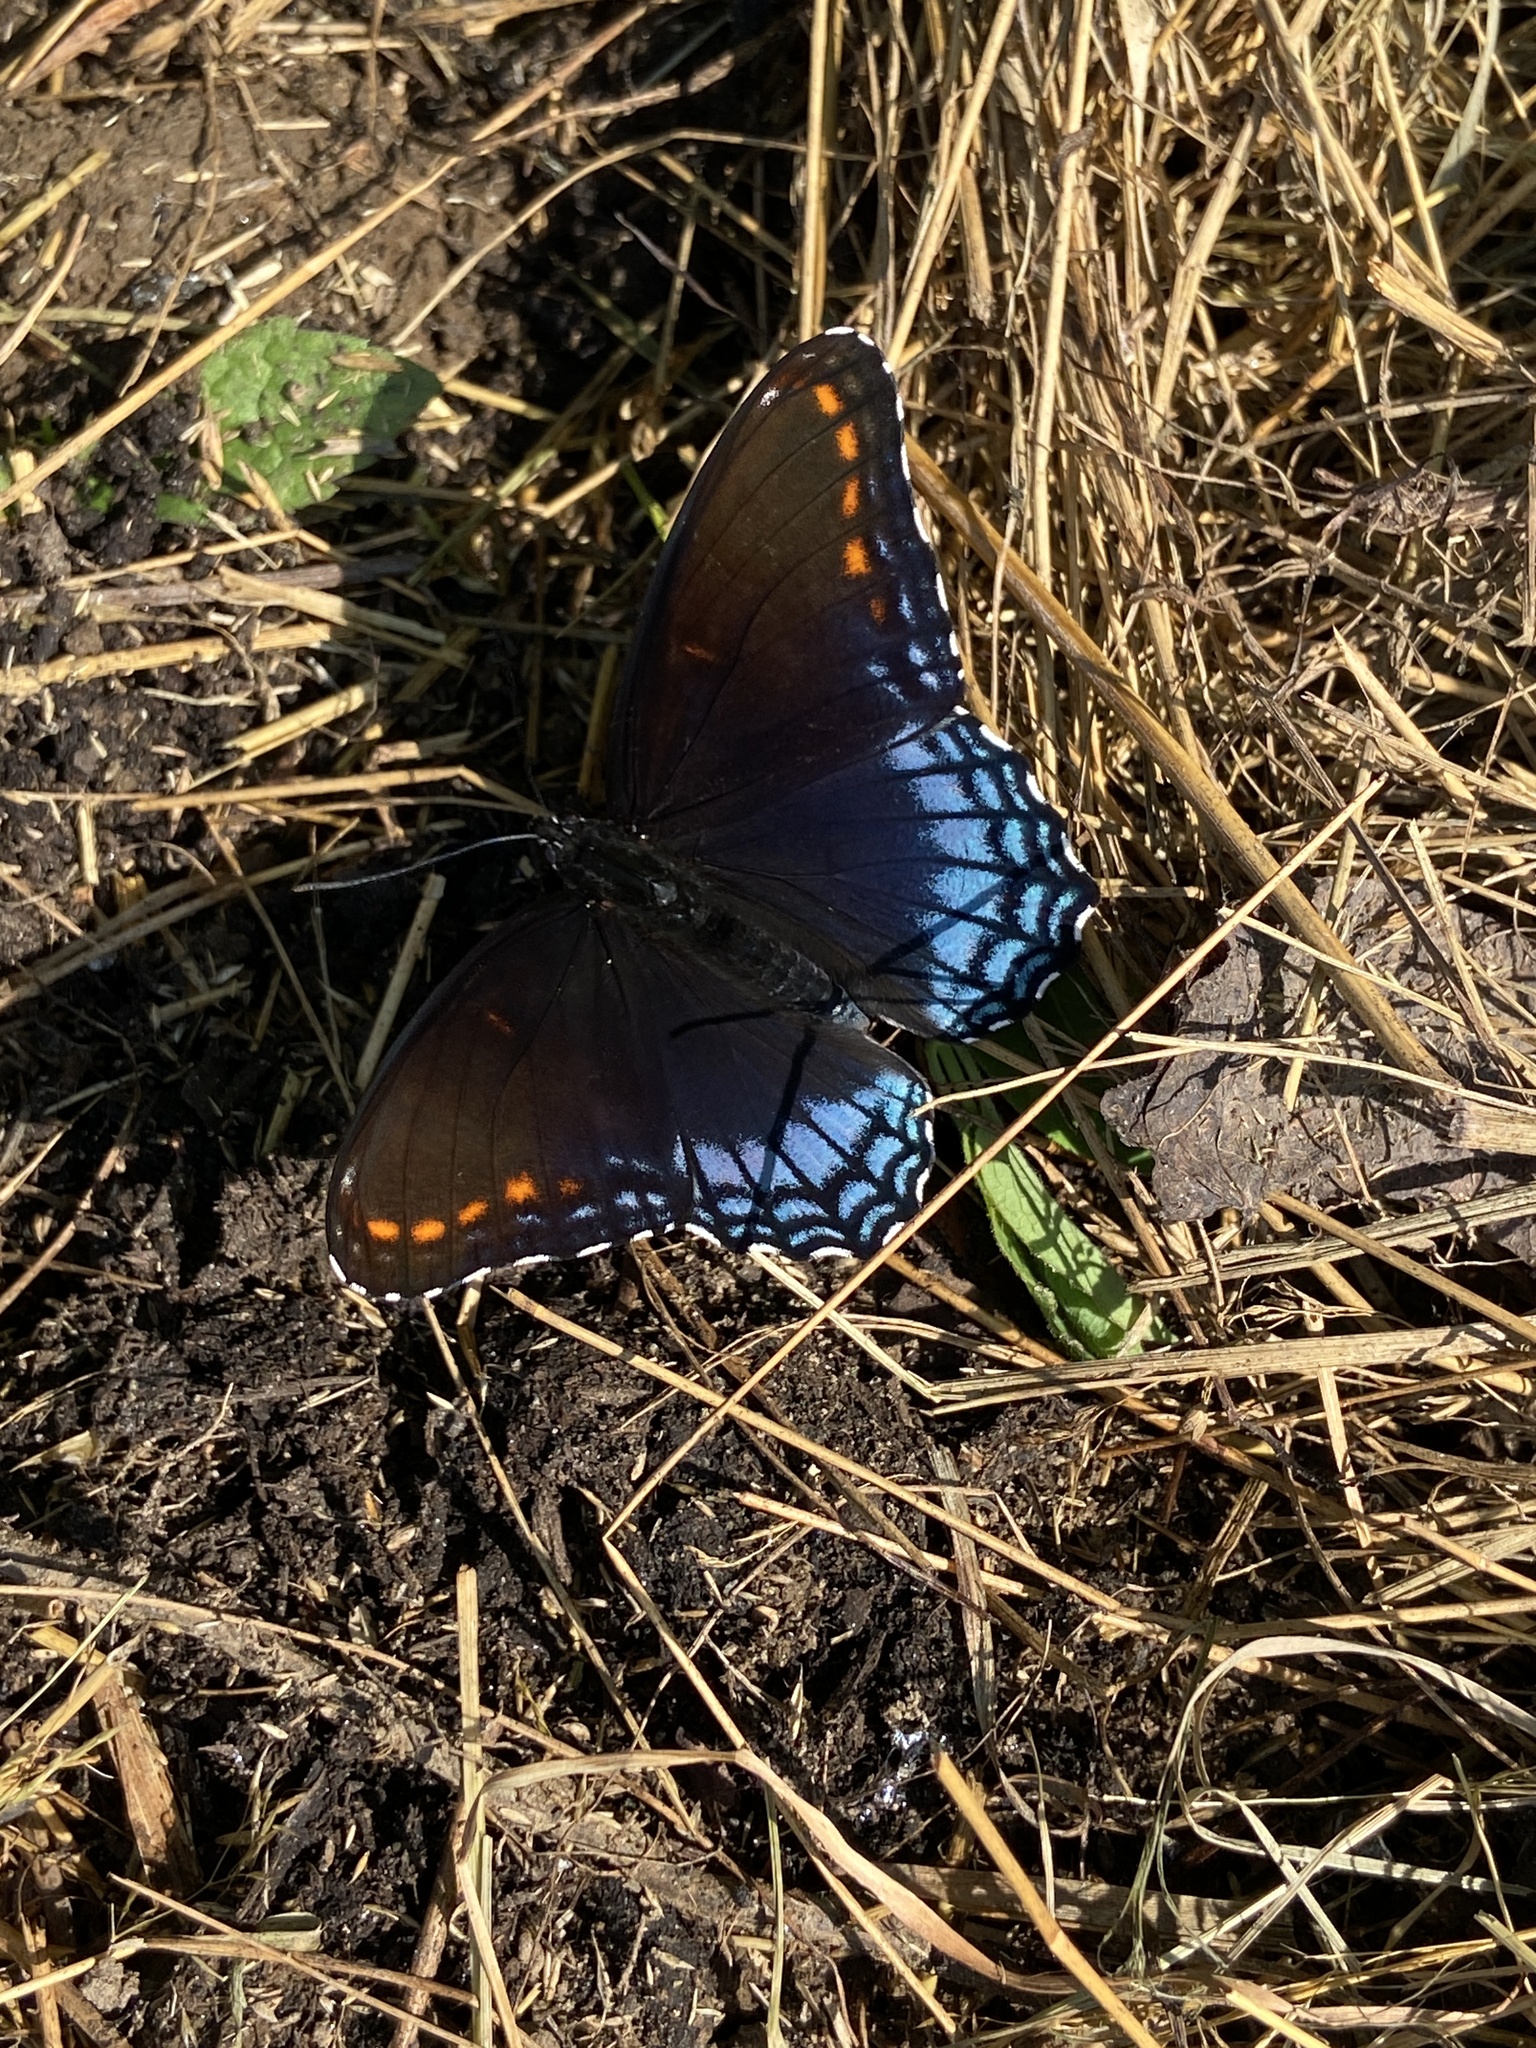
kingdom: Animalia
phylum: Arthropoda
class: Insecta
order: Lepidoptera
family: Nymphalidae
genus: Limenitis
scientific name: Limenitis astyanax
